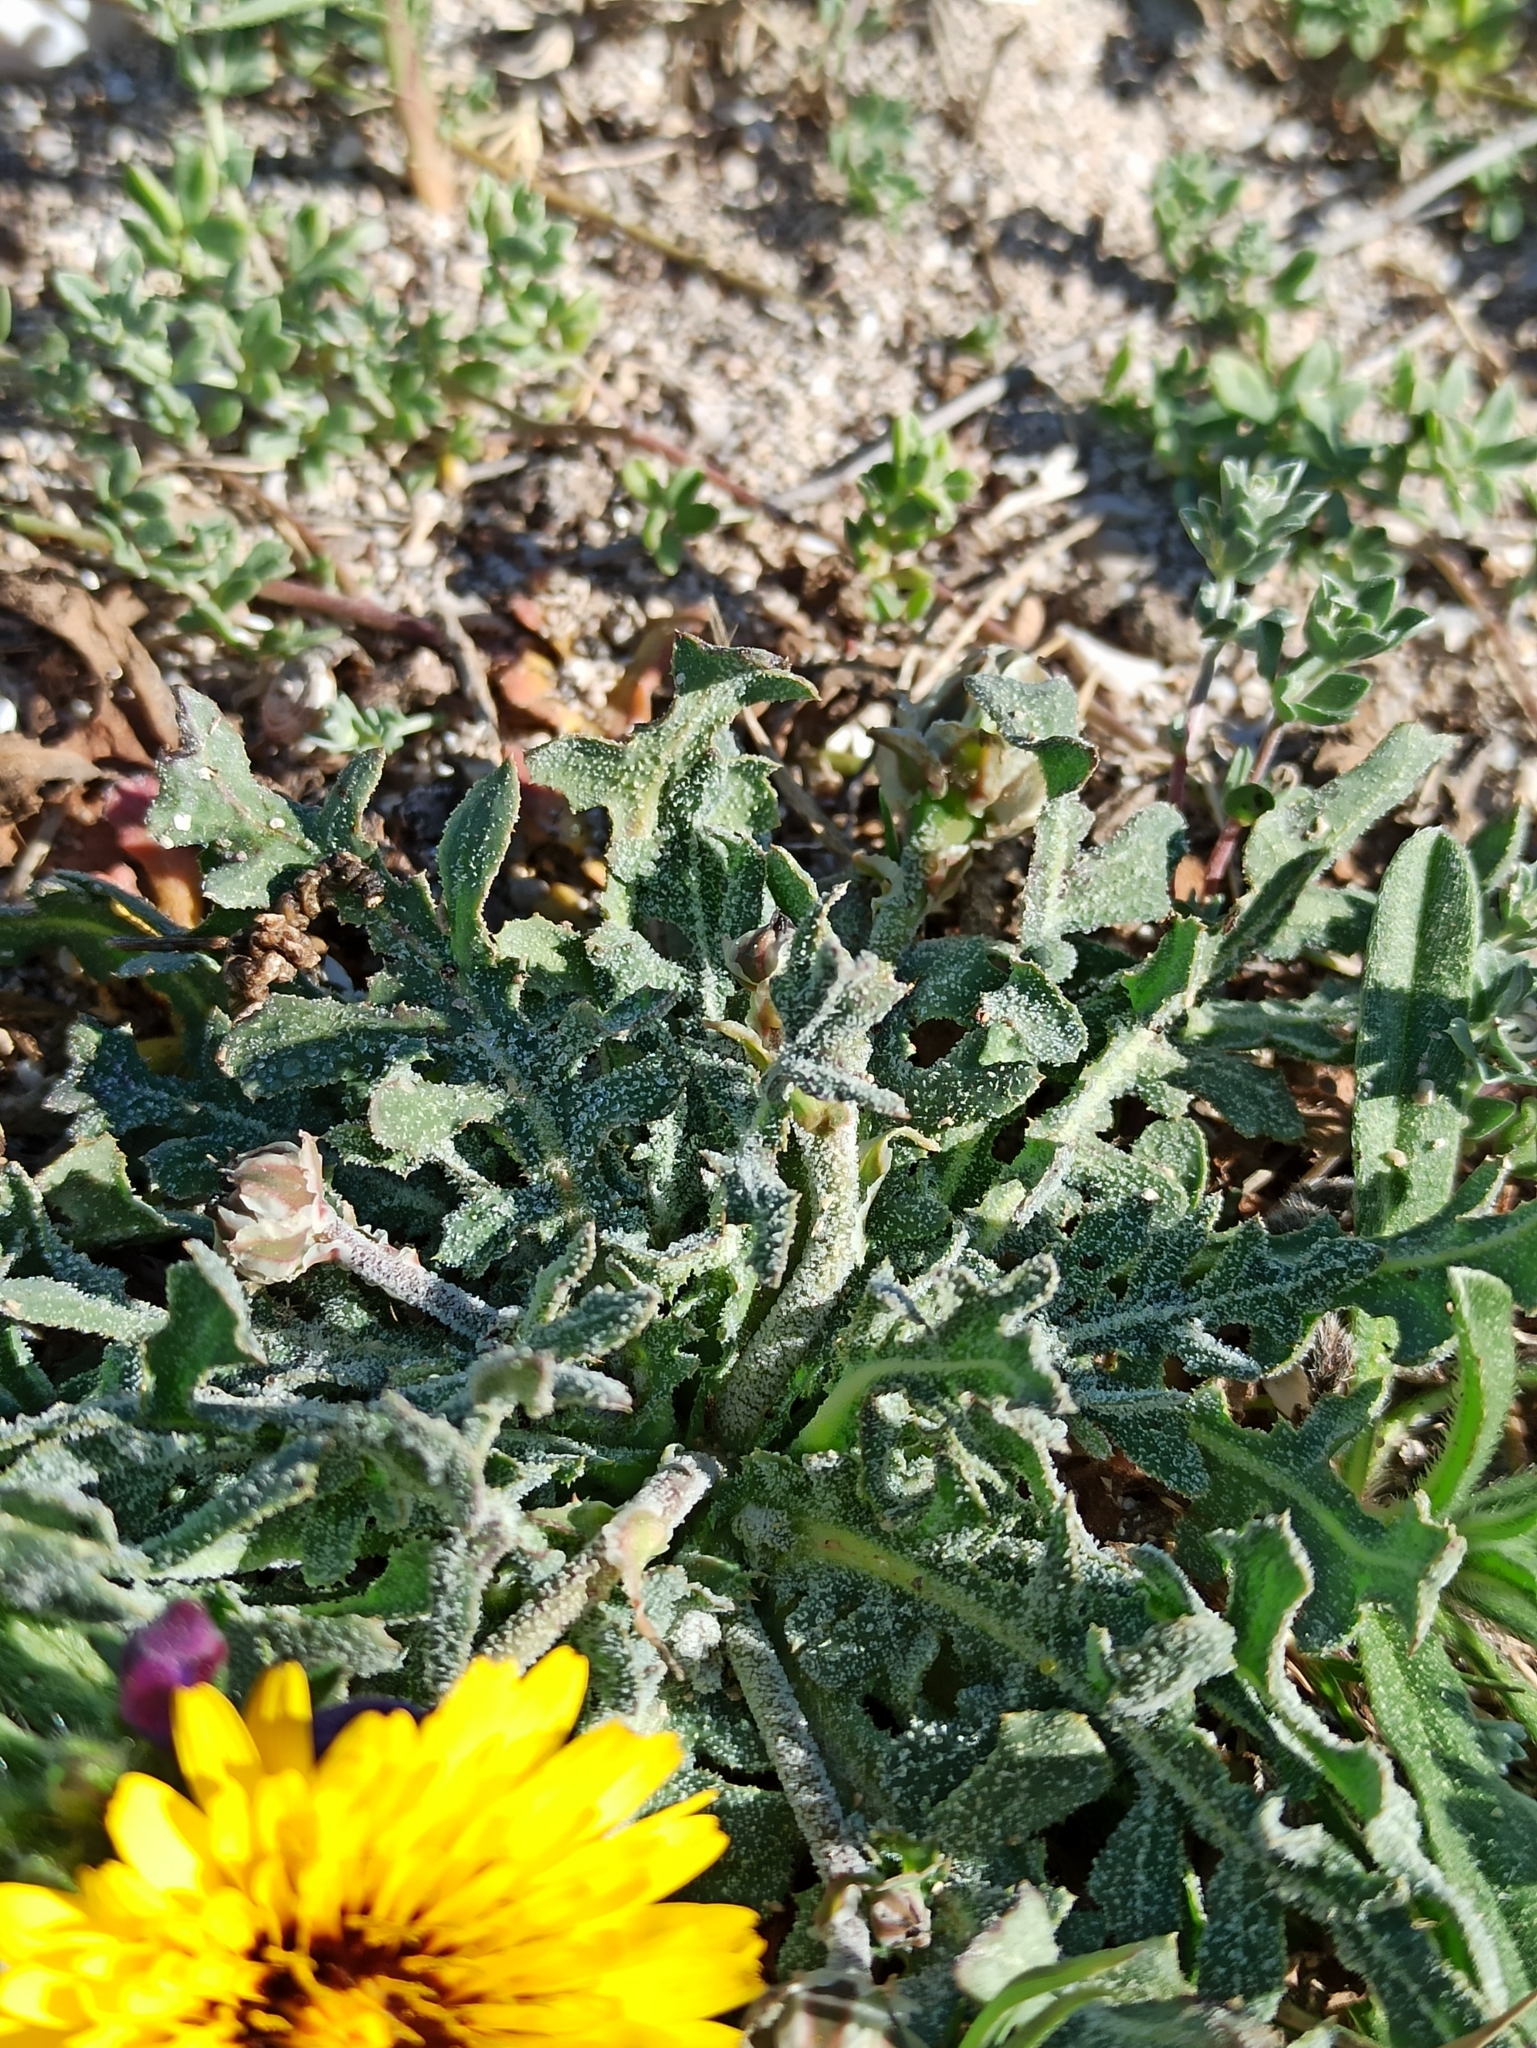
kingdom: Plantae
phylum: Tracheophyta
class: Magnoliopsida
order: Asterales
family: Asteraceae
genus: Reichardia
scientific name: Reichardia tingitana
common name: Reichardia
